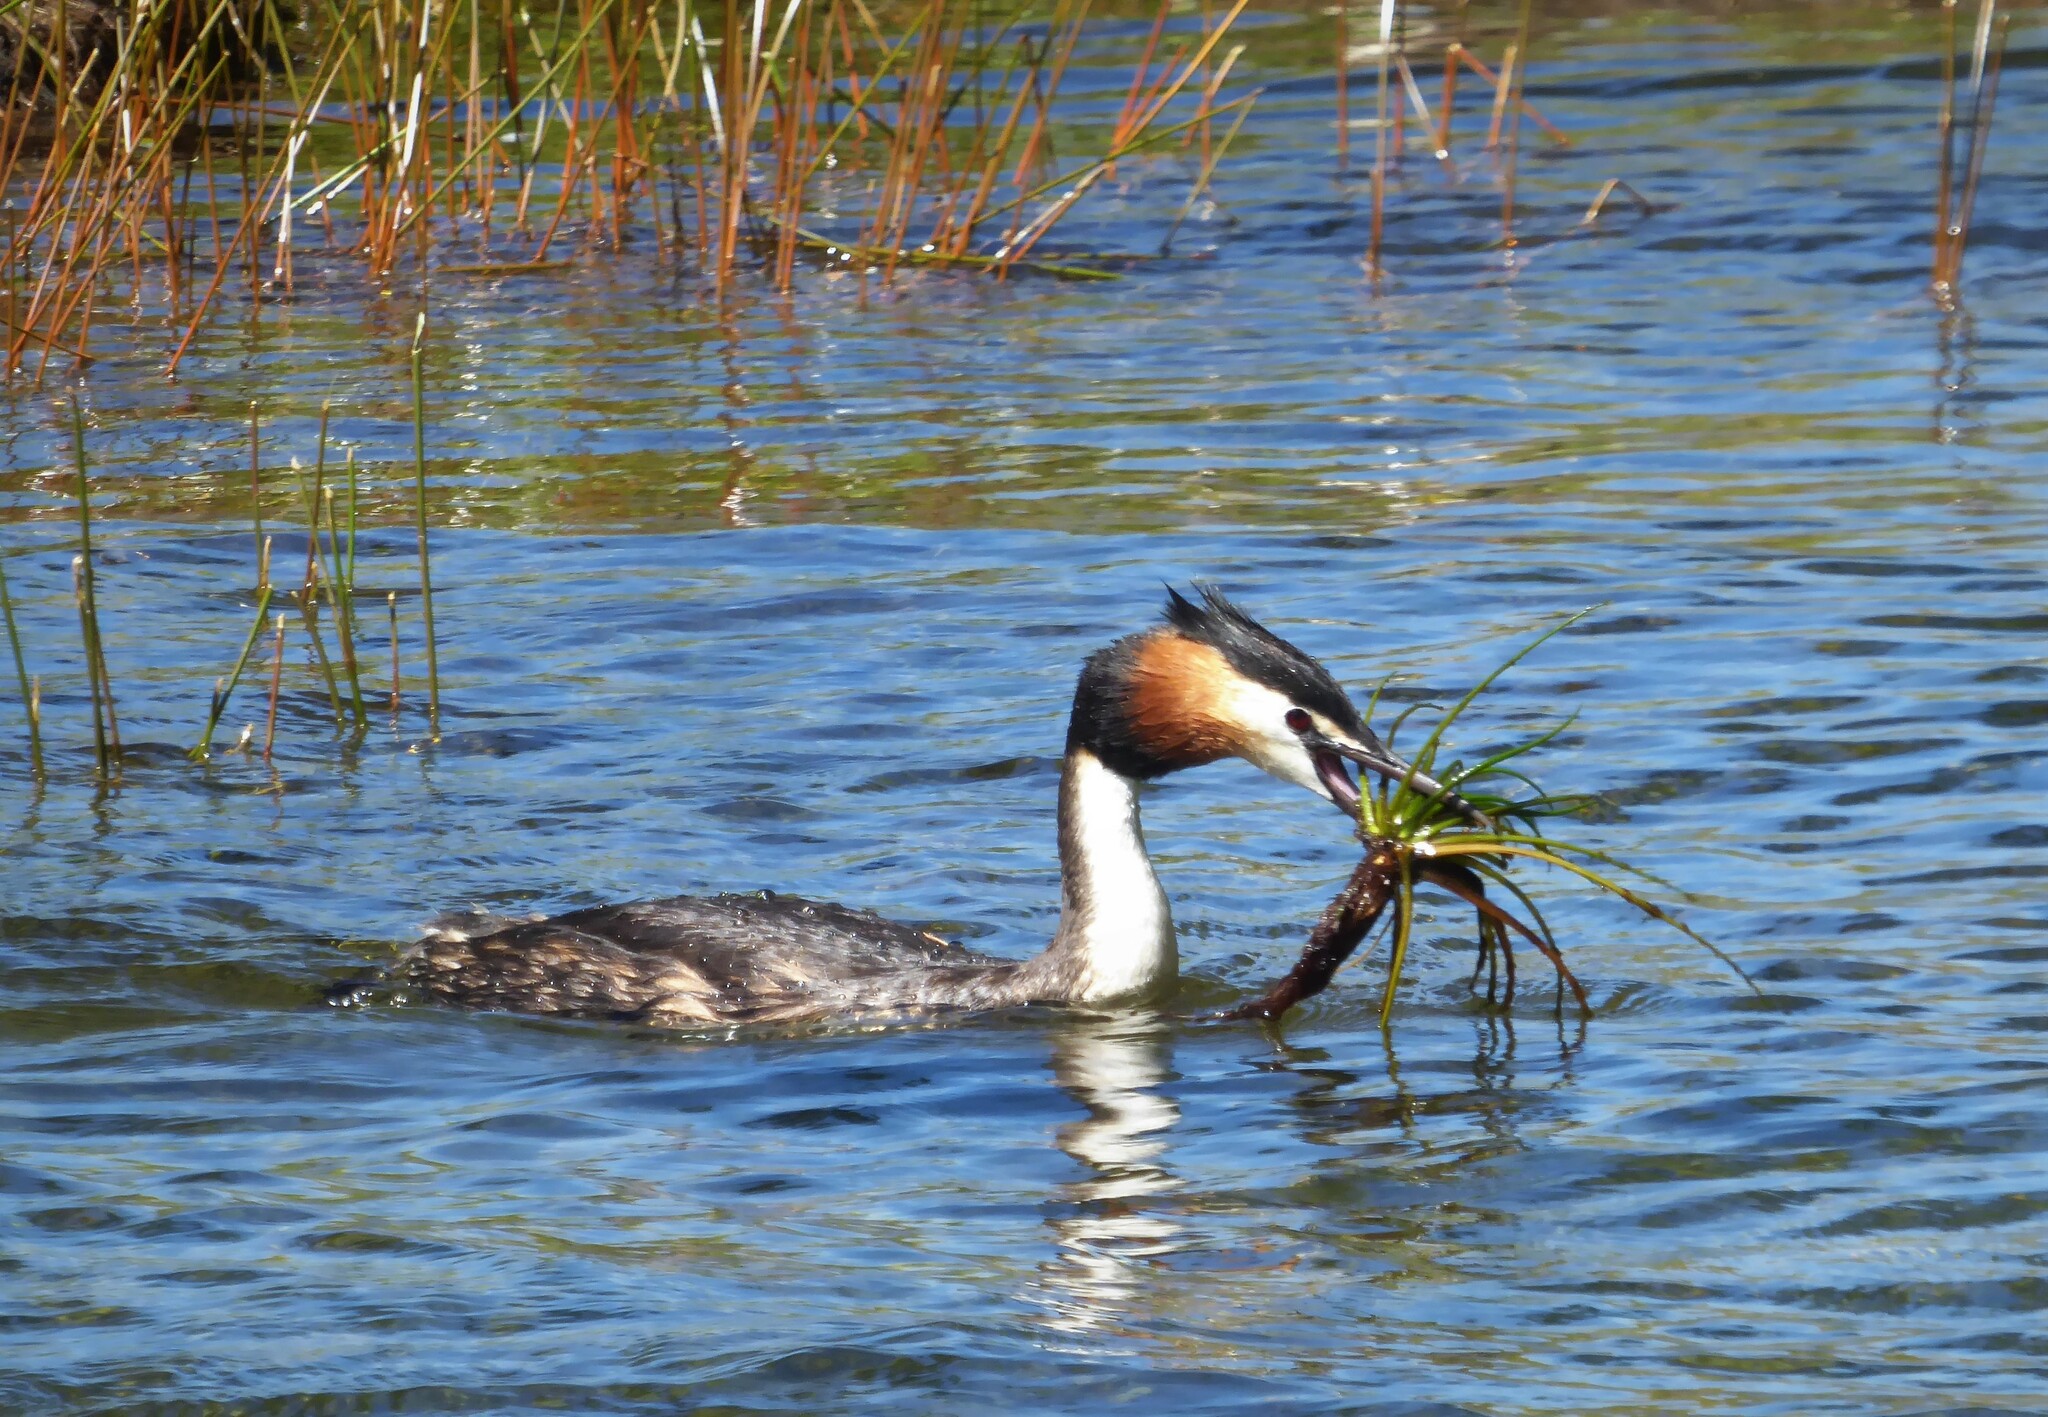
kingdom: Animalia
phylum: Chordata
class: Aves
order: Podicipediformes
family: Podicipedidae
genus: Podiceps
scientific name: Podiceps cristatus
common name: Great crested grebe
